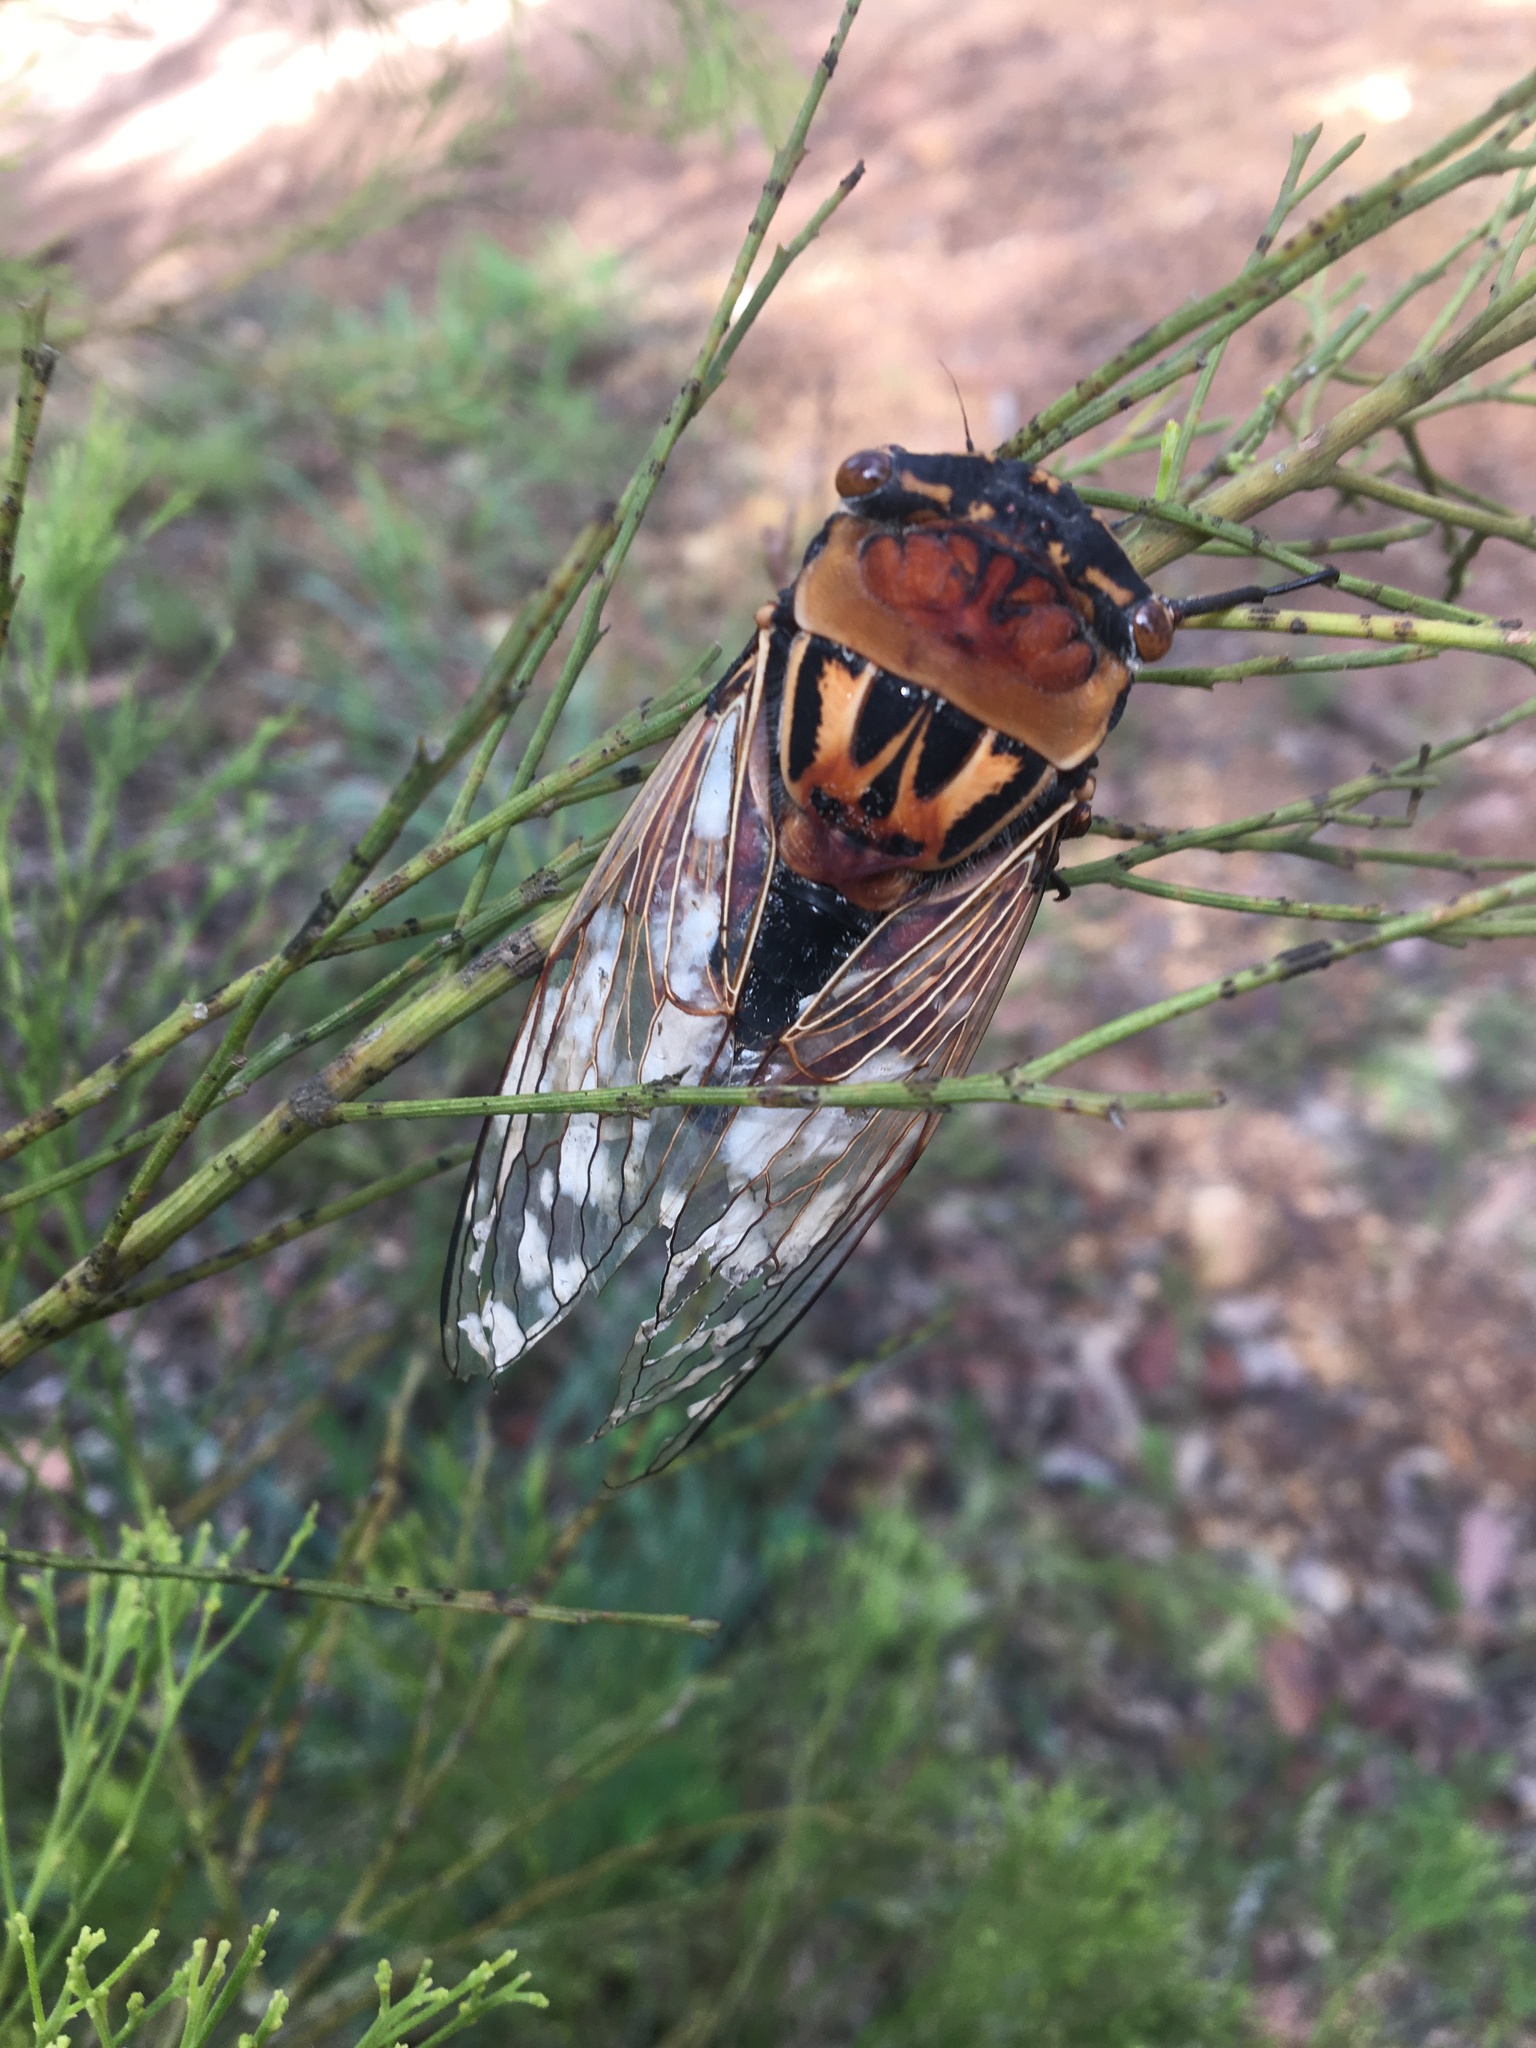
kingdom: Animalia
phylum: Arthropoda
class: Insecta
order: Hemiptera
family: Cicadidae
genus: Thopha
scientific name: Thopha saccata
